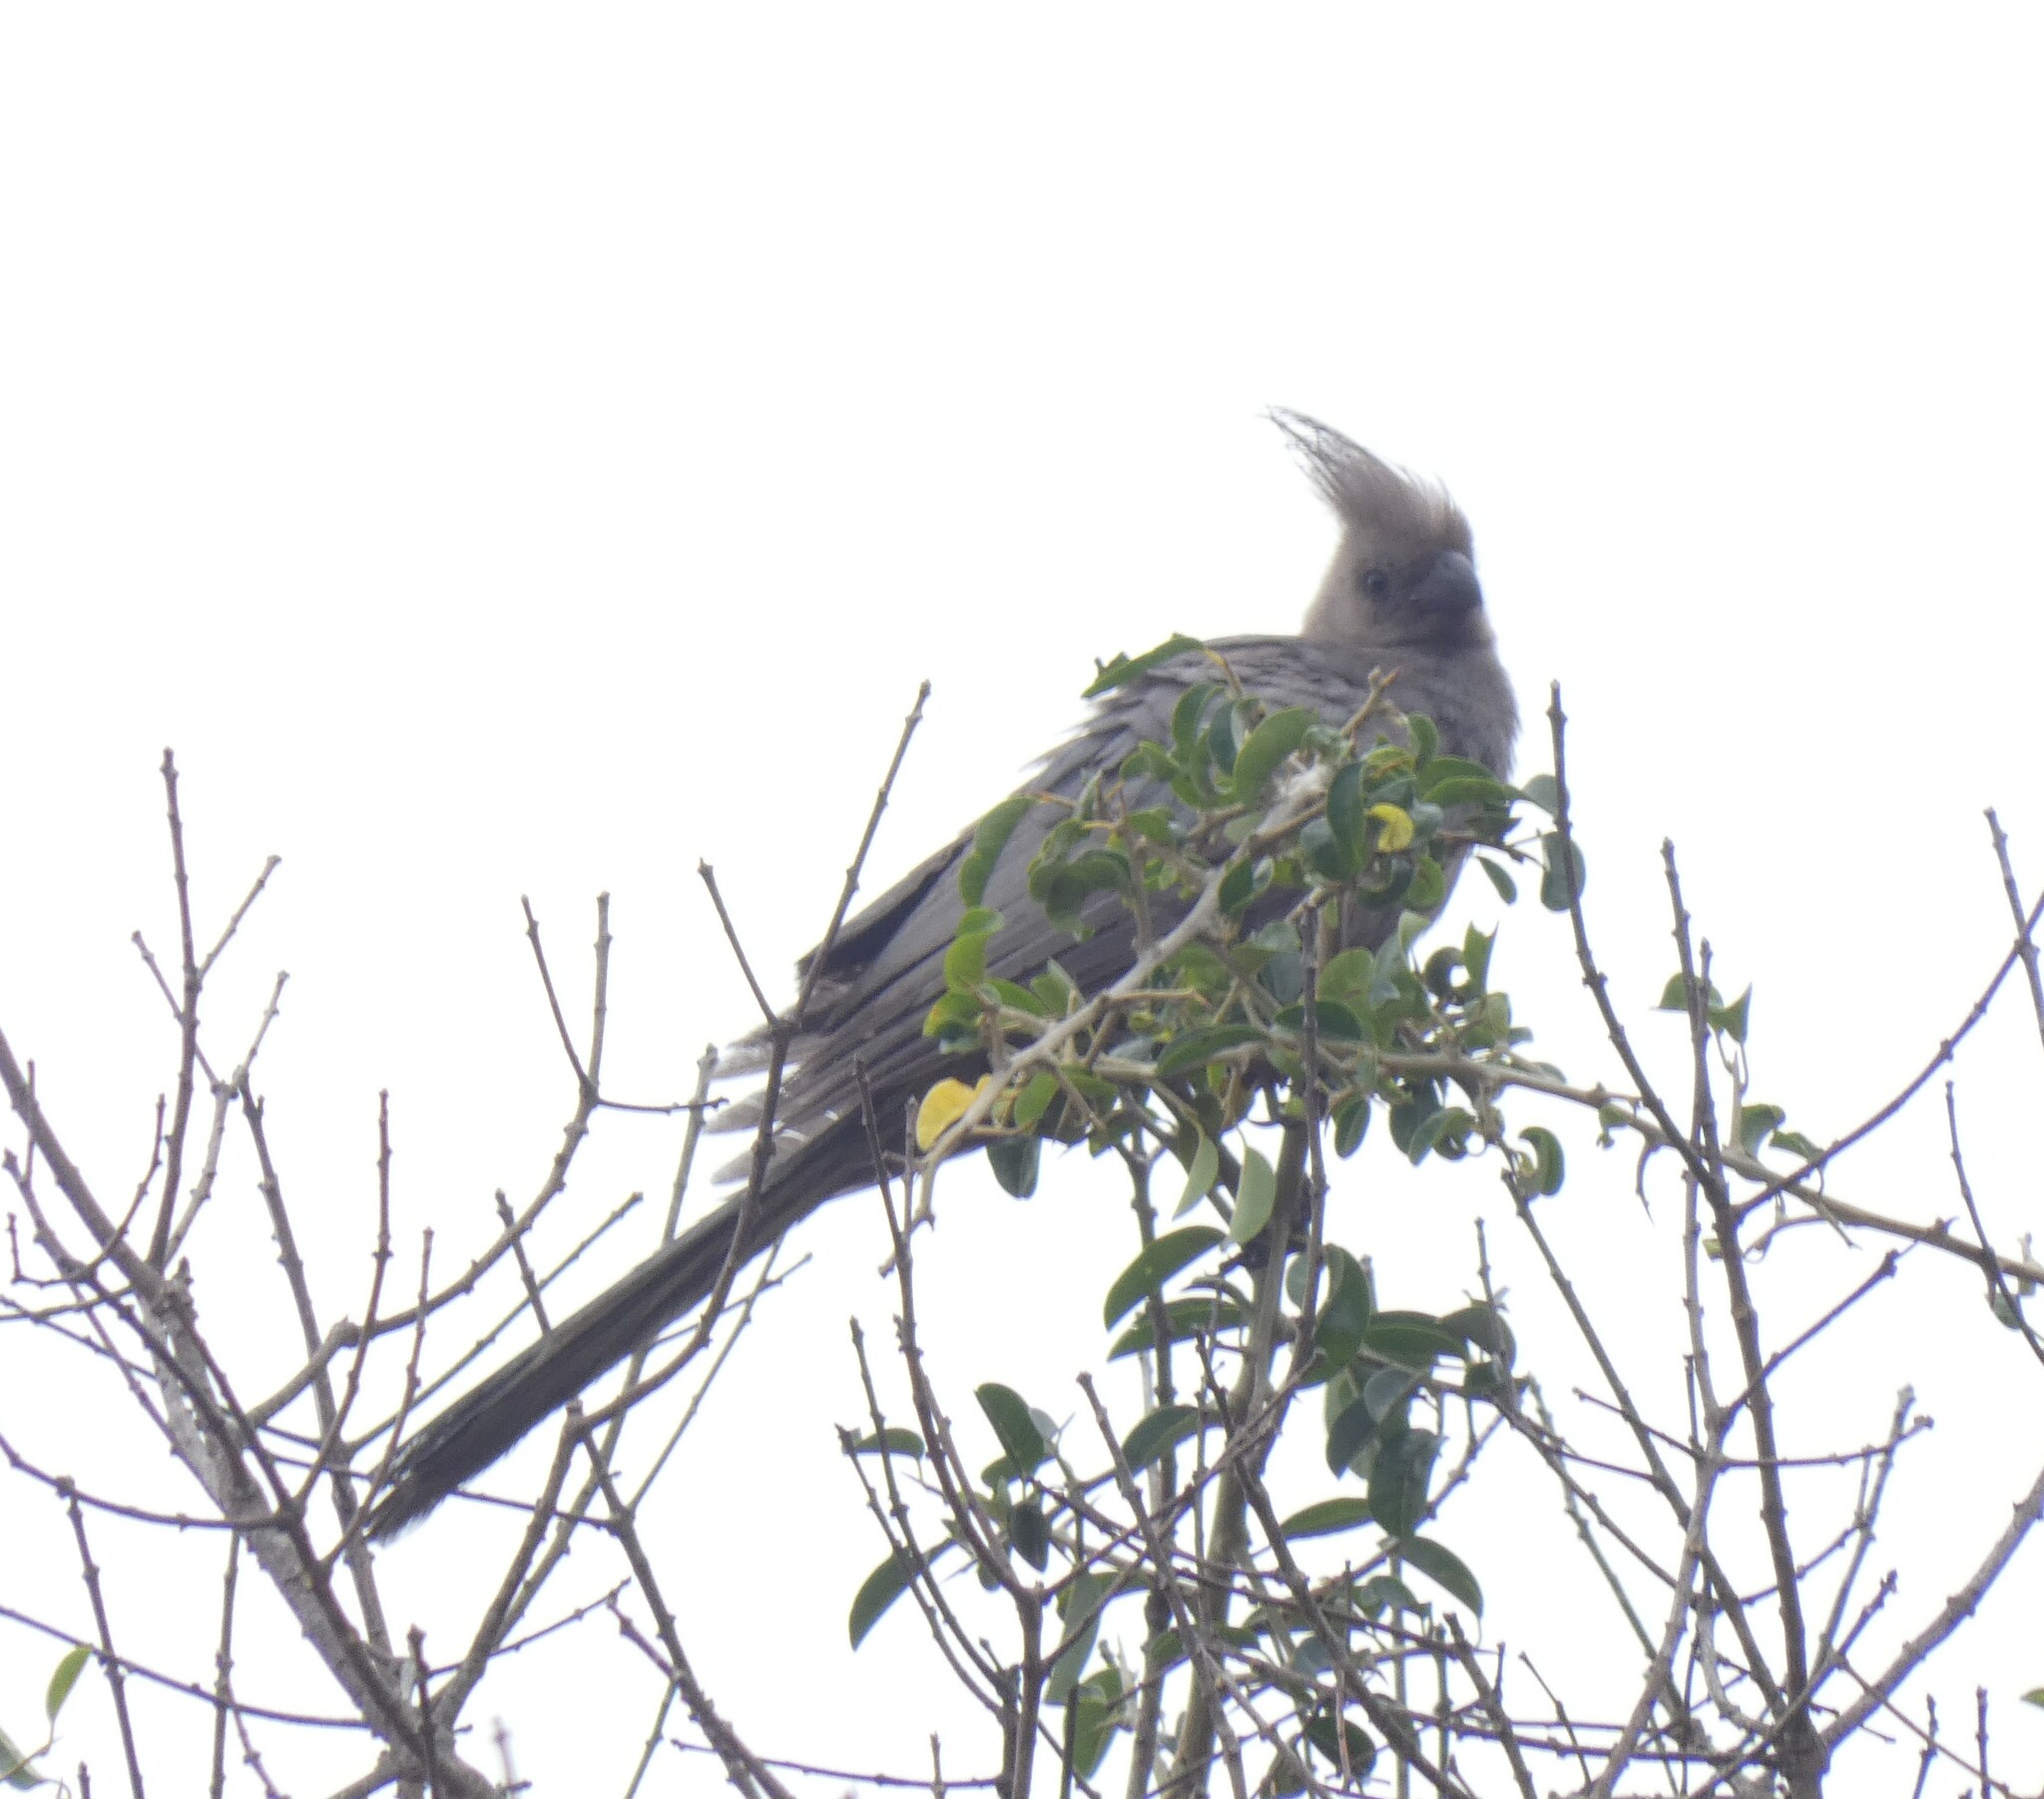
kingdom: Animalia
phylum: Chordata
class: Aves
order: Musophagiformes
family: Musophagidae
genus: Corythaixoides
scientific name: Corythaixoides concolor
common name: Grey go-away-bird
